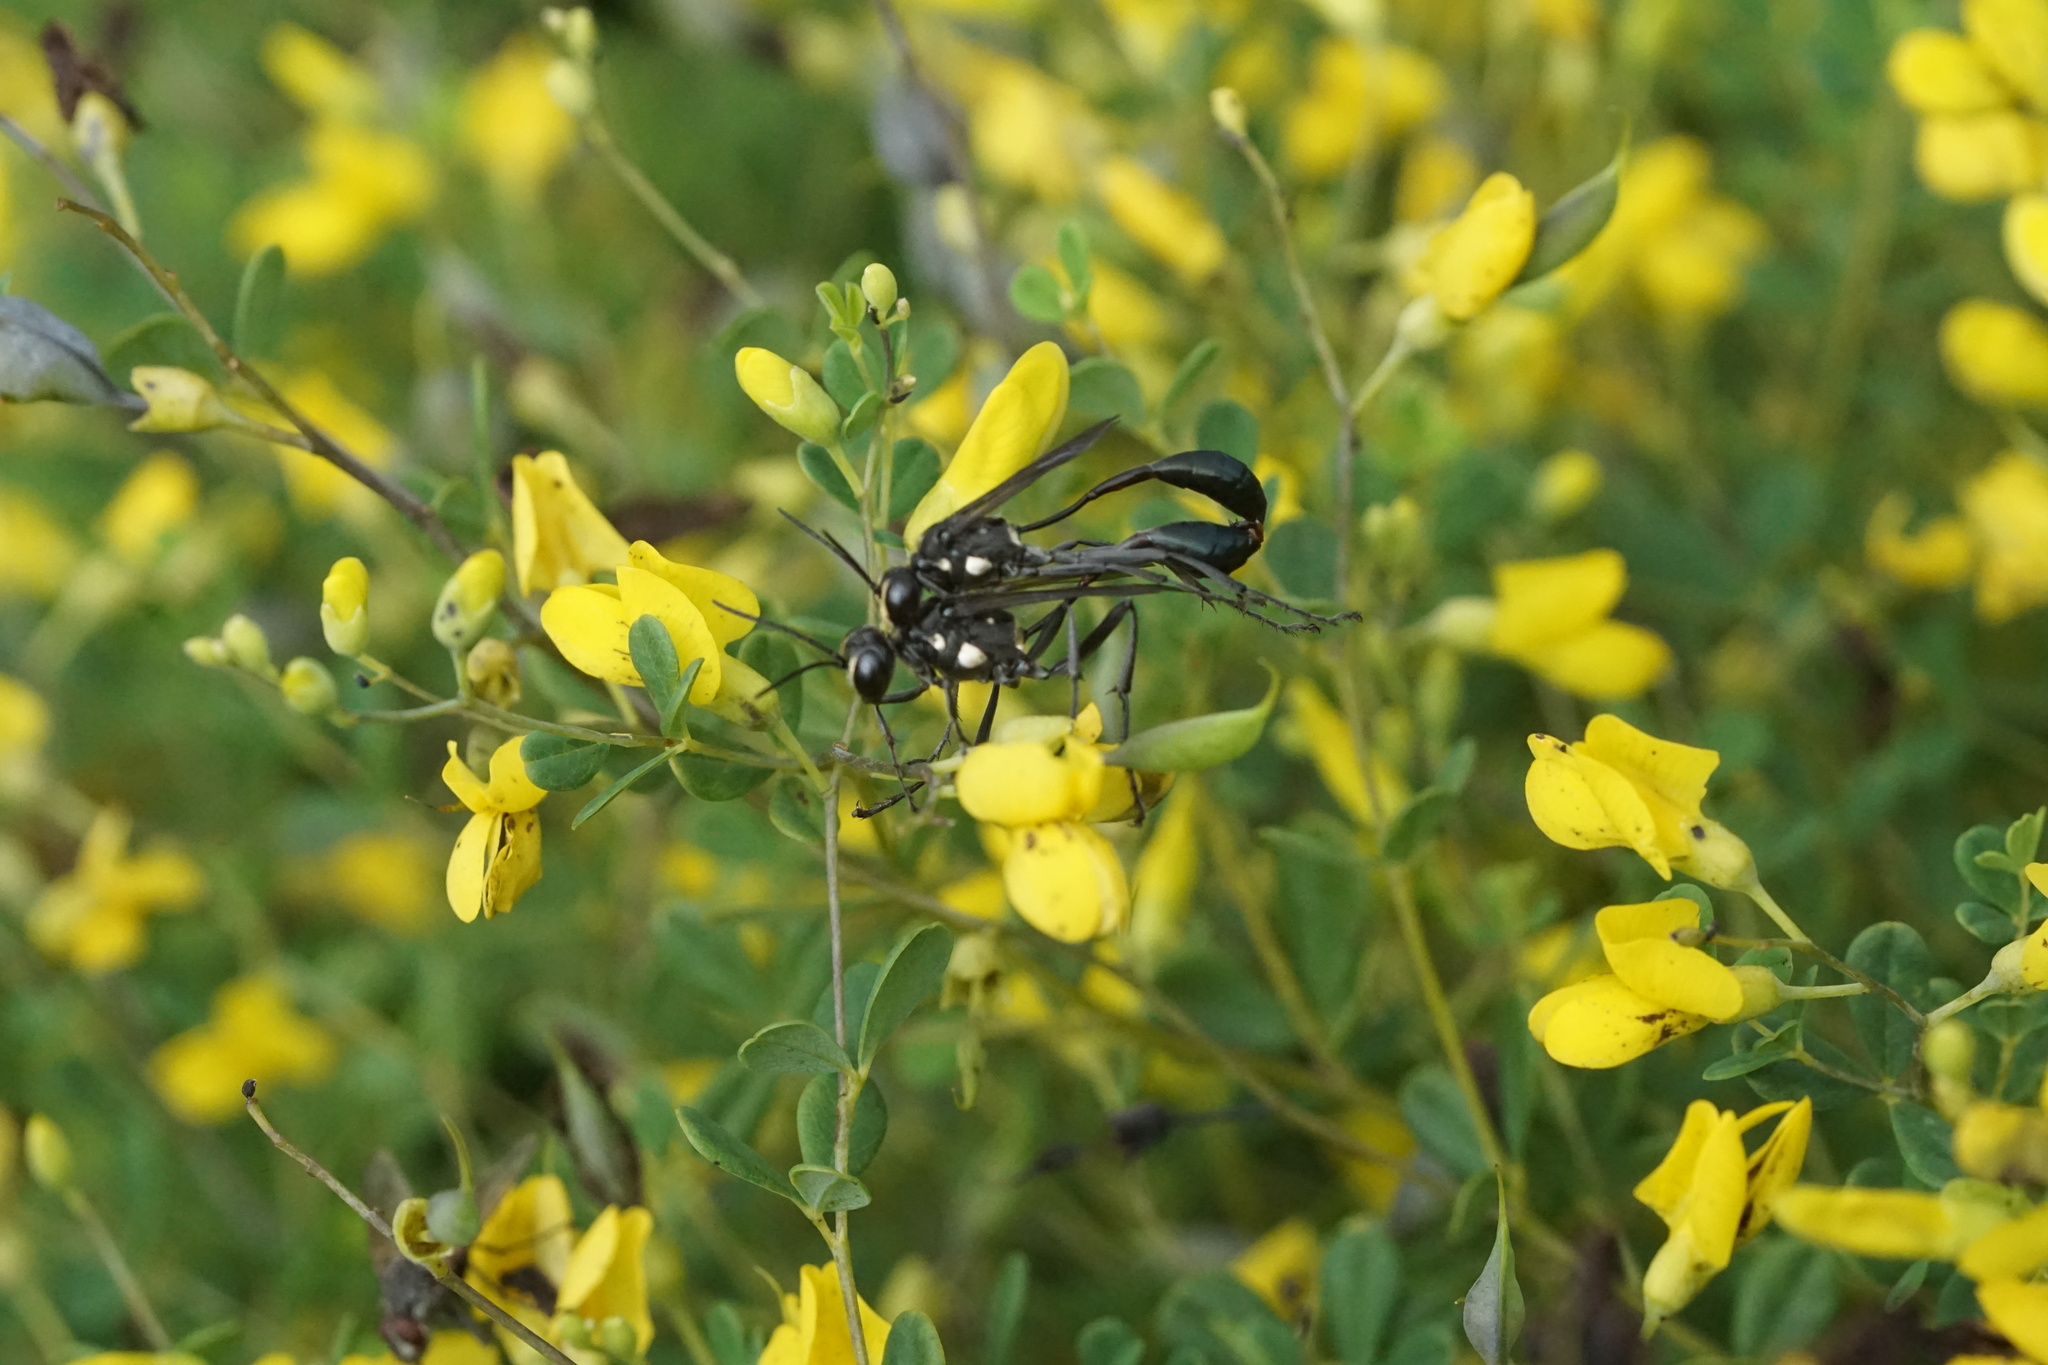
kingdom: Animalia
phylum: Arthropoda
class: Insecta
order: Hymenoptera
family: Sphecidae
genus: Eremnophila
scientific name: Eremnophila aureonotata
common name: Gold-marked thread-waisted wasp
